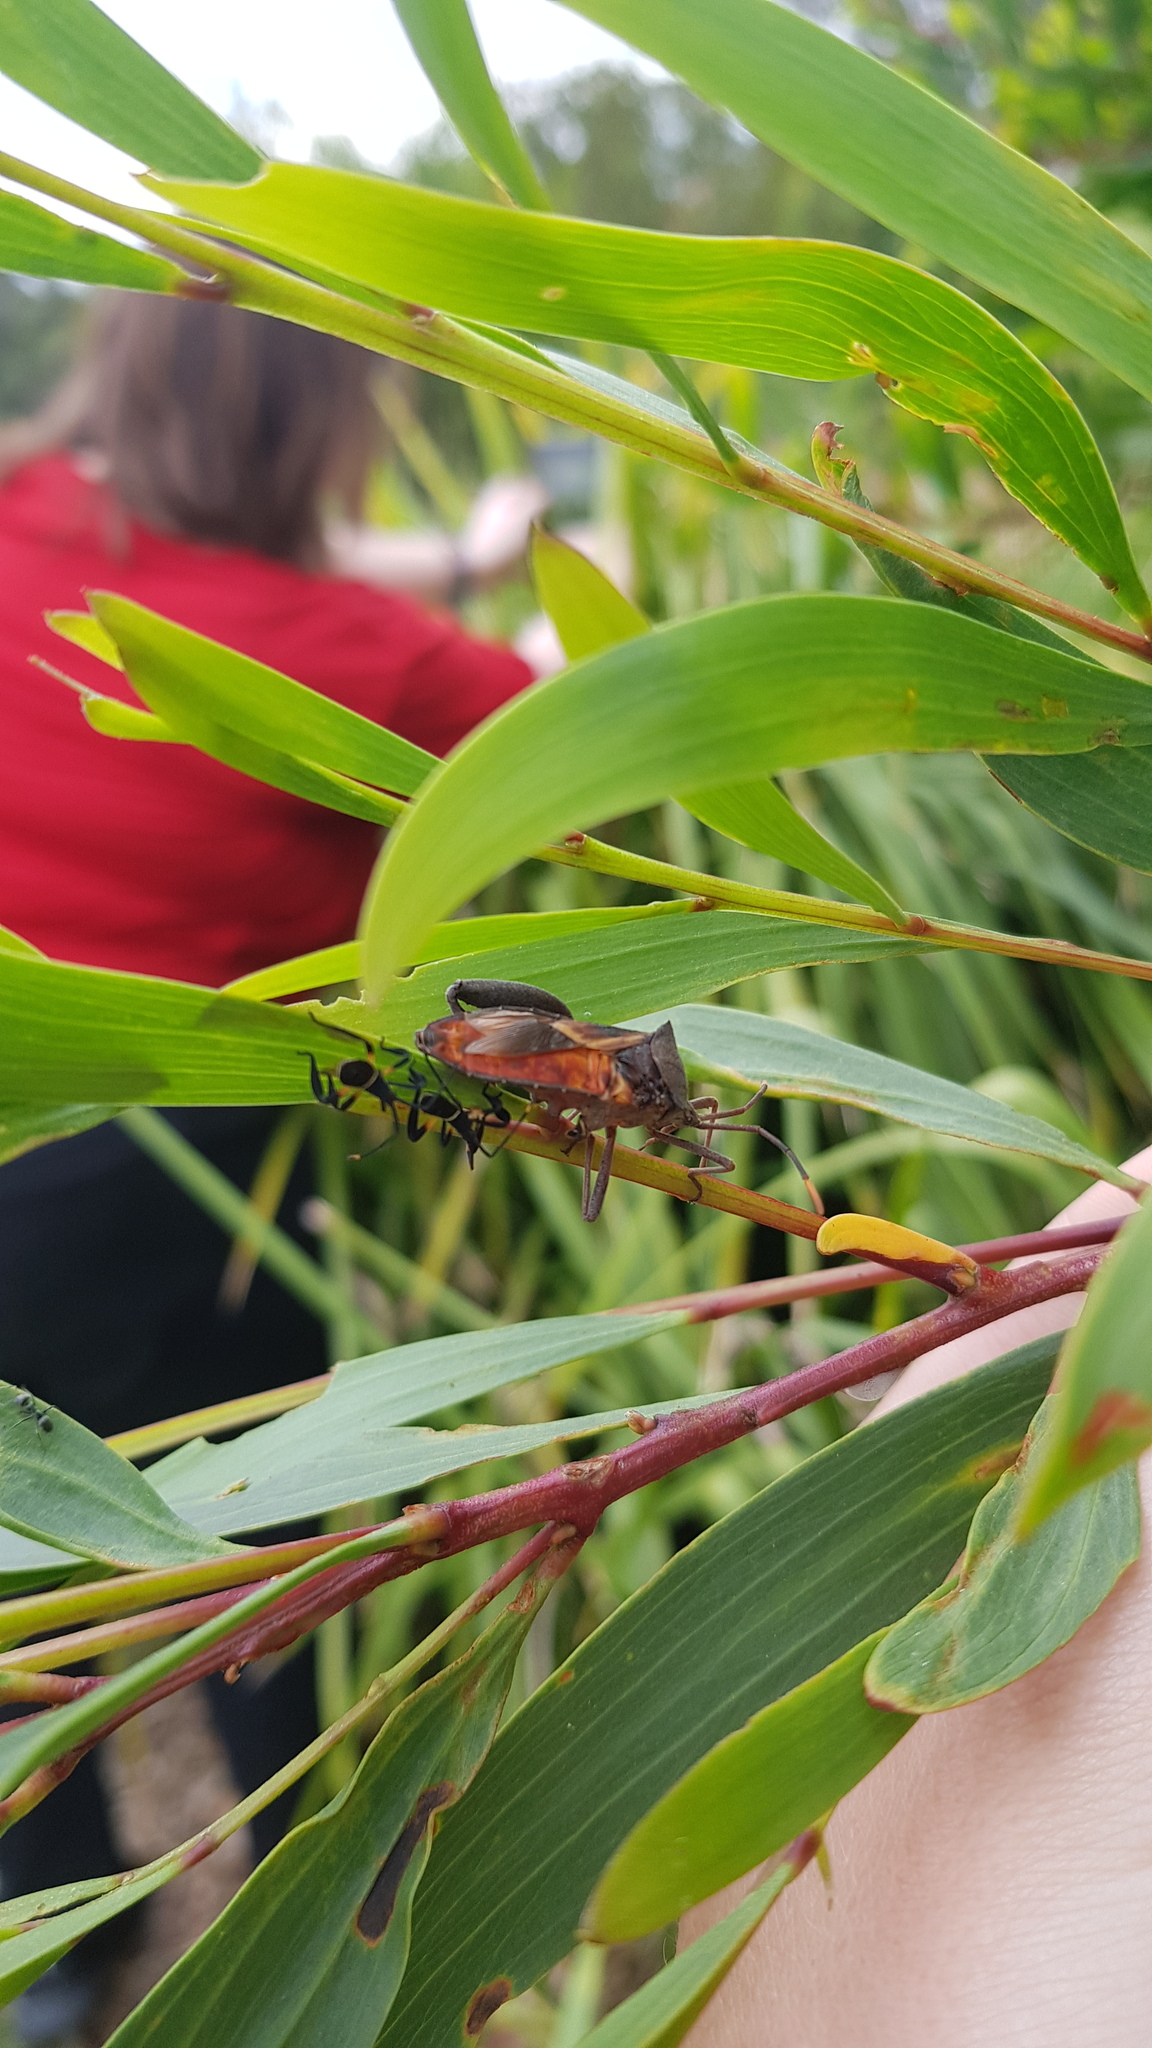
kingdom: Animalia
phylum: Arthropoda
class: Insecta
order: Hemiptera
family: Coreidae
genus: Mictis
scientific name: Mictis profana
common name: Crusader bug
